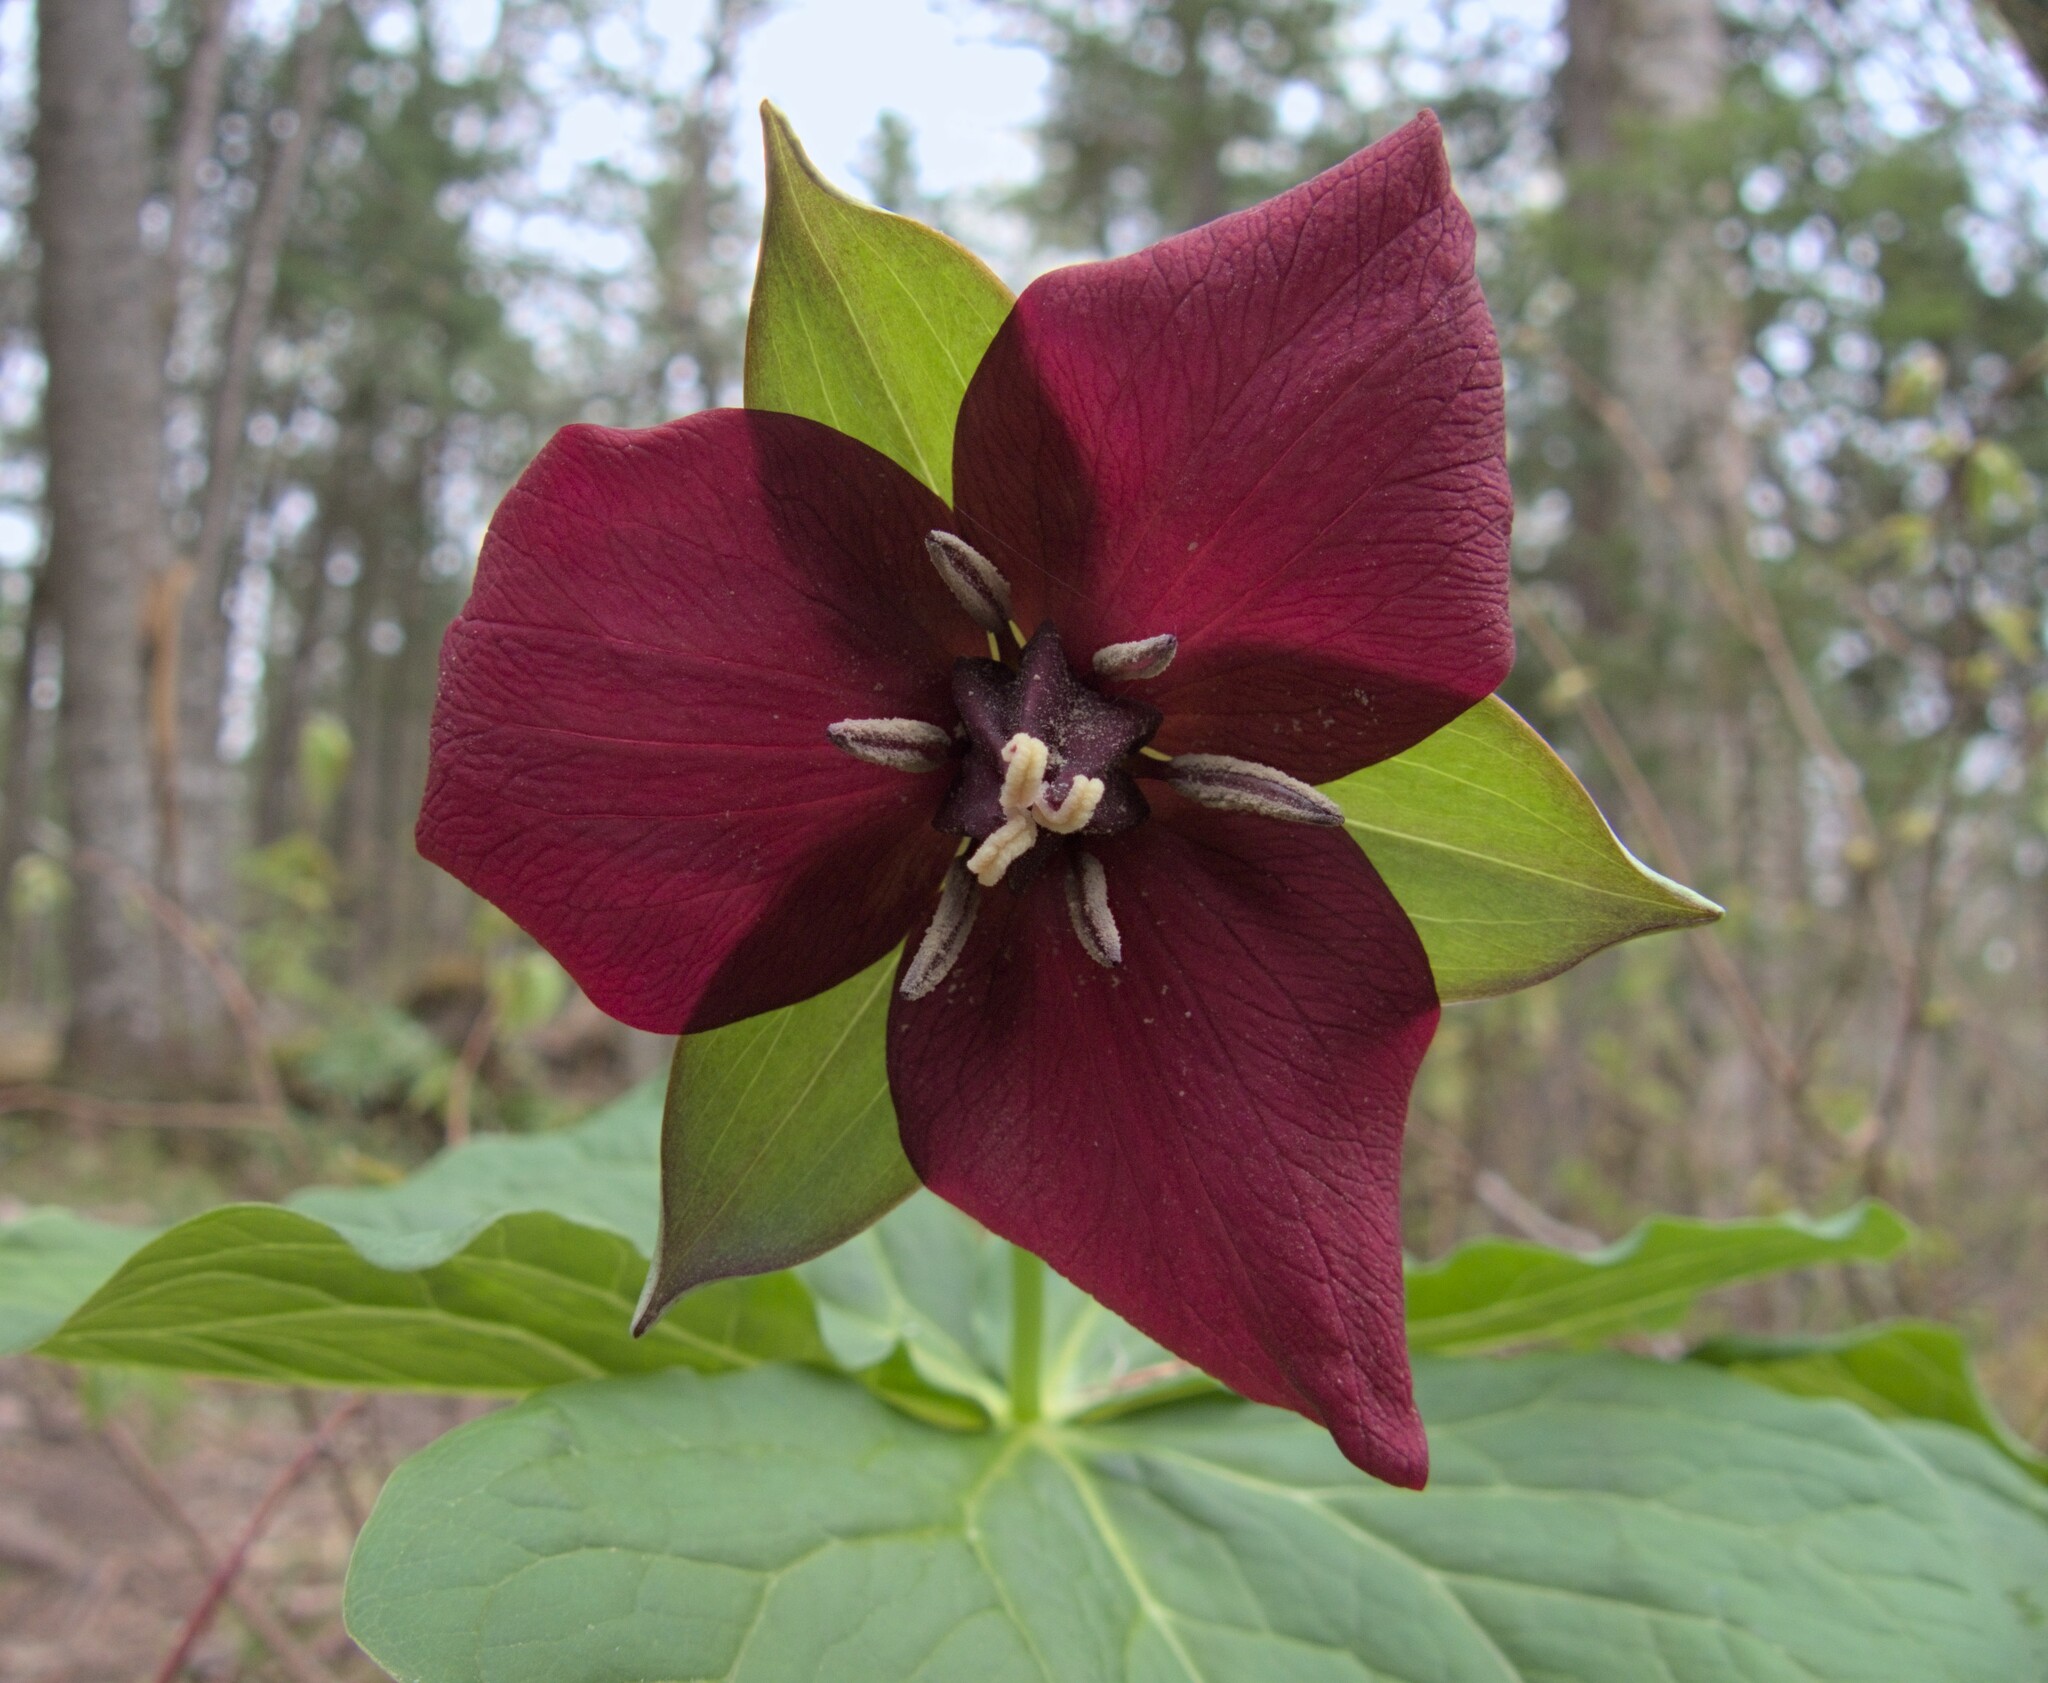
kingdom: Plantae
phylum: Tracheophyta
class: Liliopsida
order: Liliales
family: Melanthiaceae
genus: Trillium
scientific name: Trillium erectum
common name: Purple trillium
